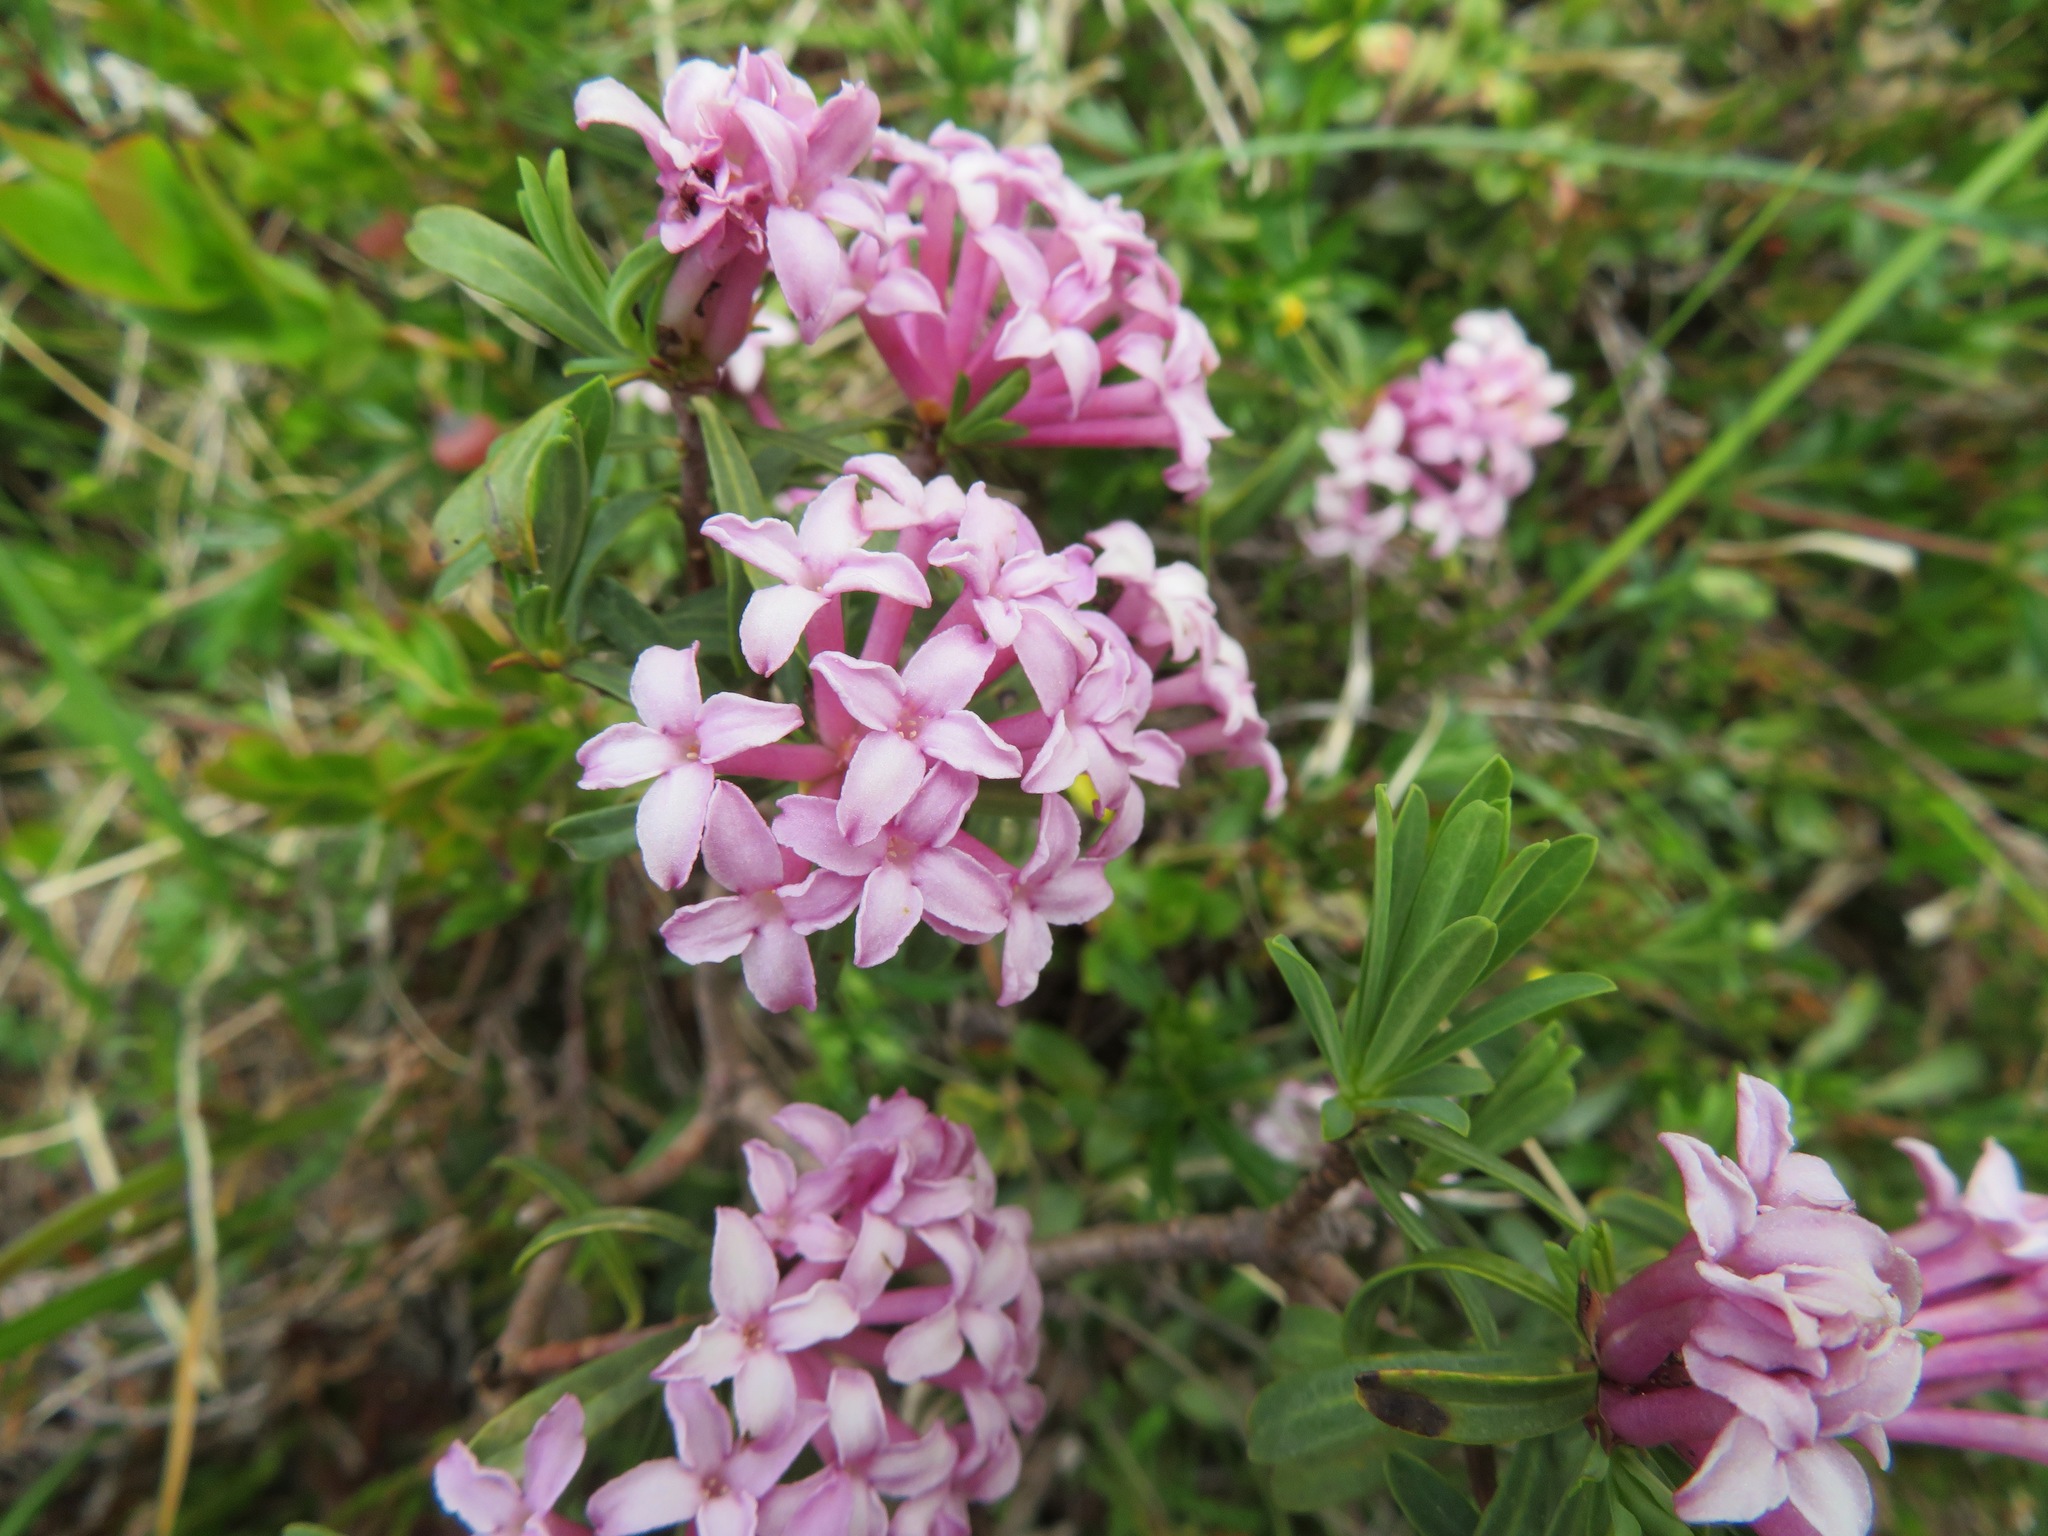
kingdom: Plantae
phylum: Tracheophyta
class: Magnoliopsida
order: Malvales
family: Thymelaeaceae
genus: Daphne
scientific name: Daphne striata
